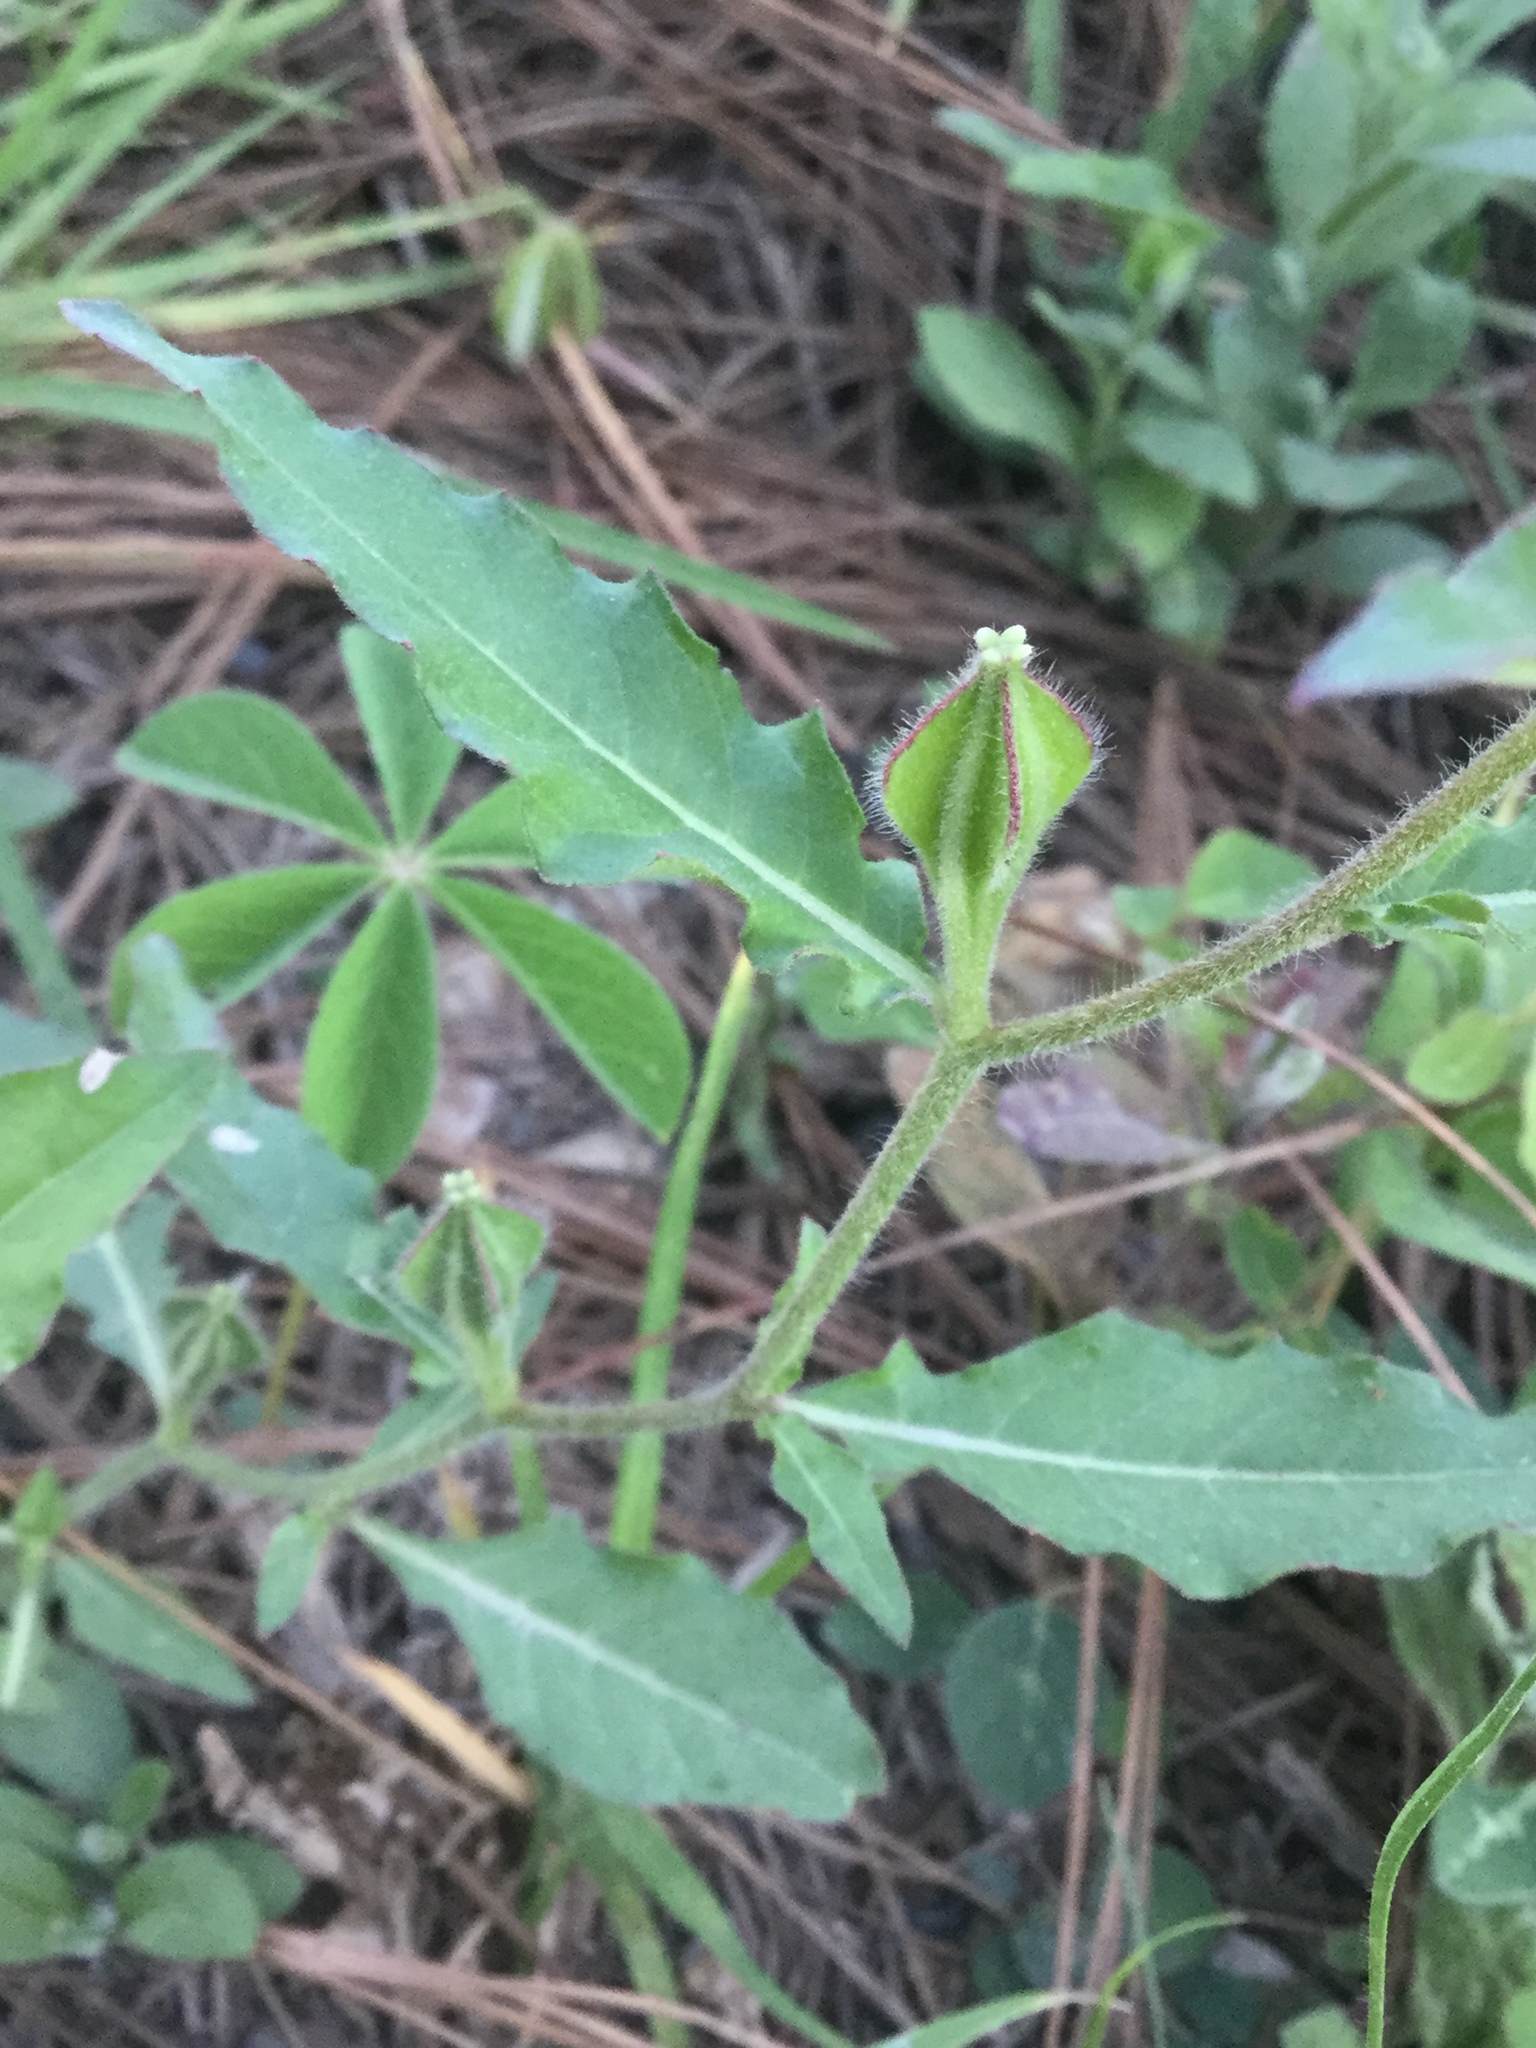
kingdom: Plantae
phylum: Tracheophyta
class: Magnoliopsida
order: Myrtales
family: Onagraceae
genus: Oenothera
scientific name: Oenothera tetraptera
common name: Four-wing evening-primrose
